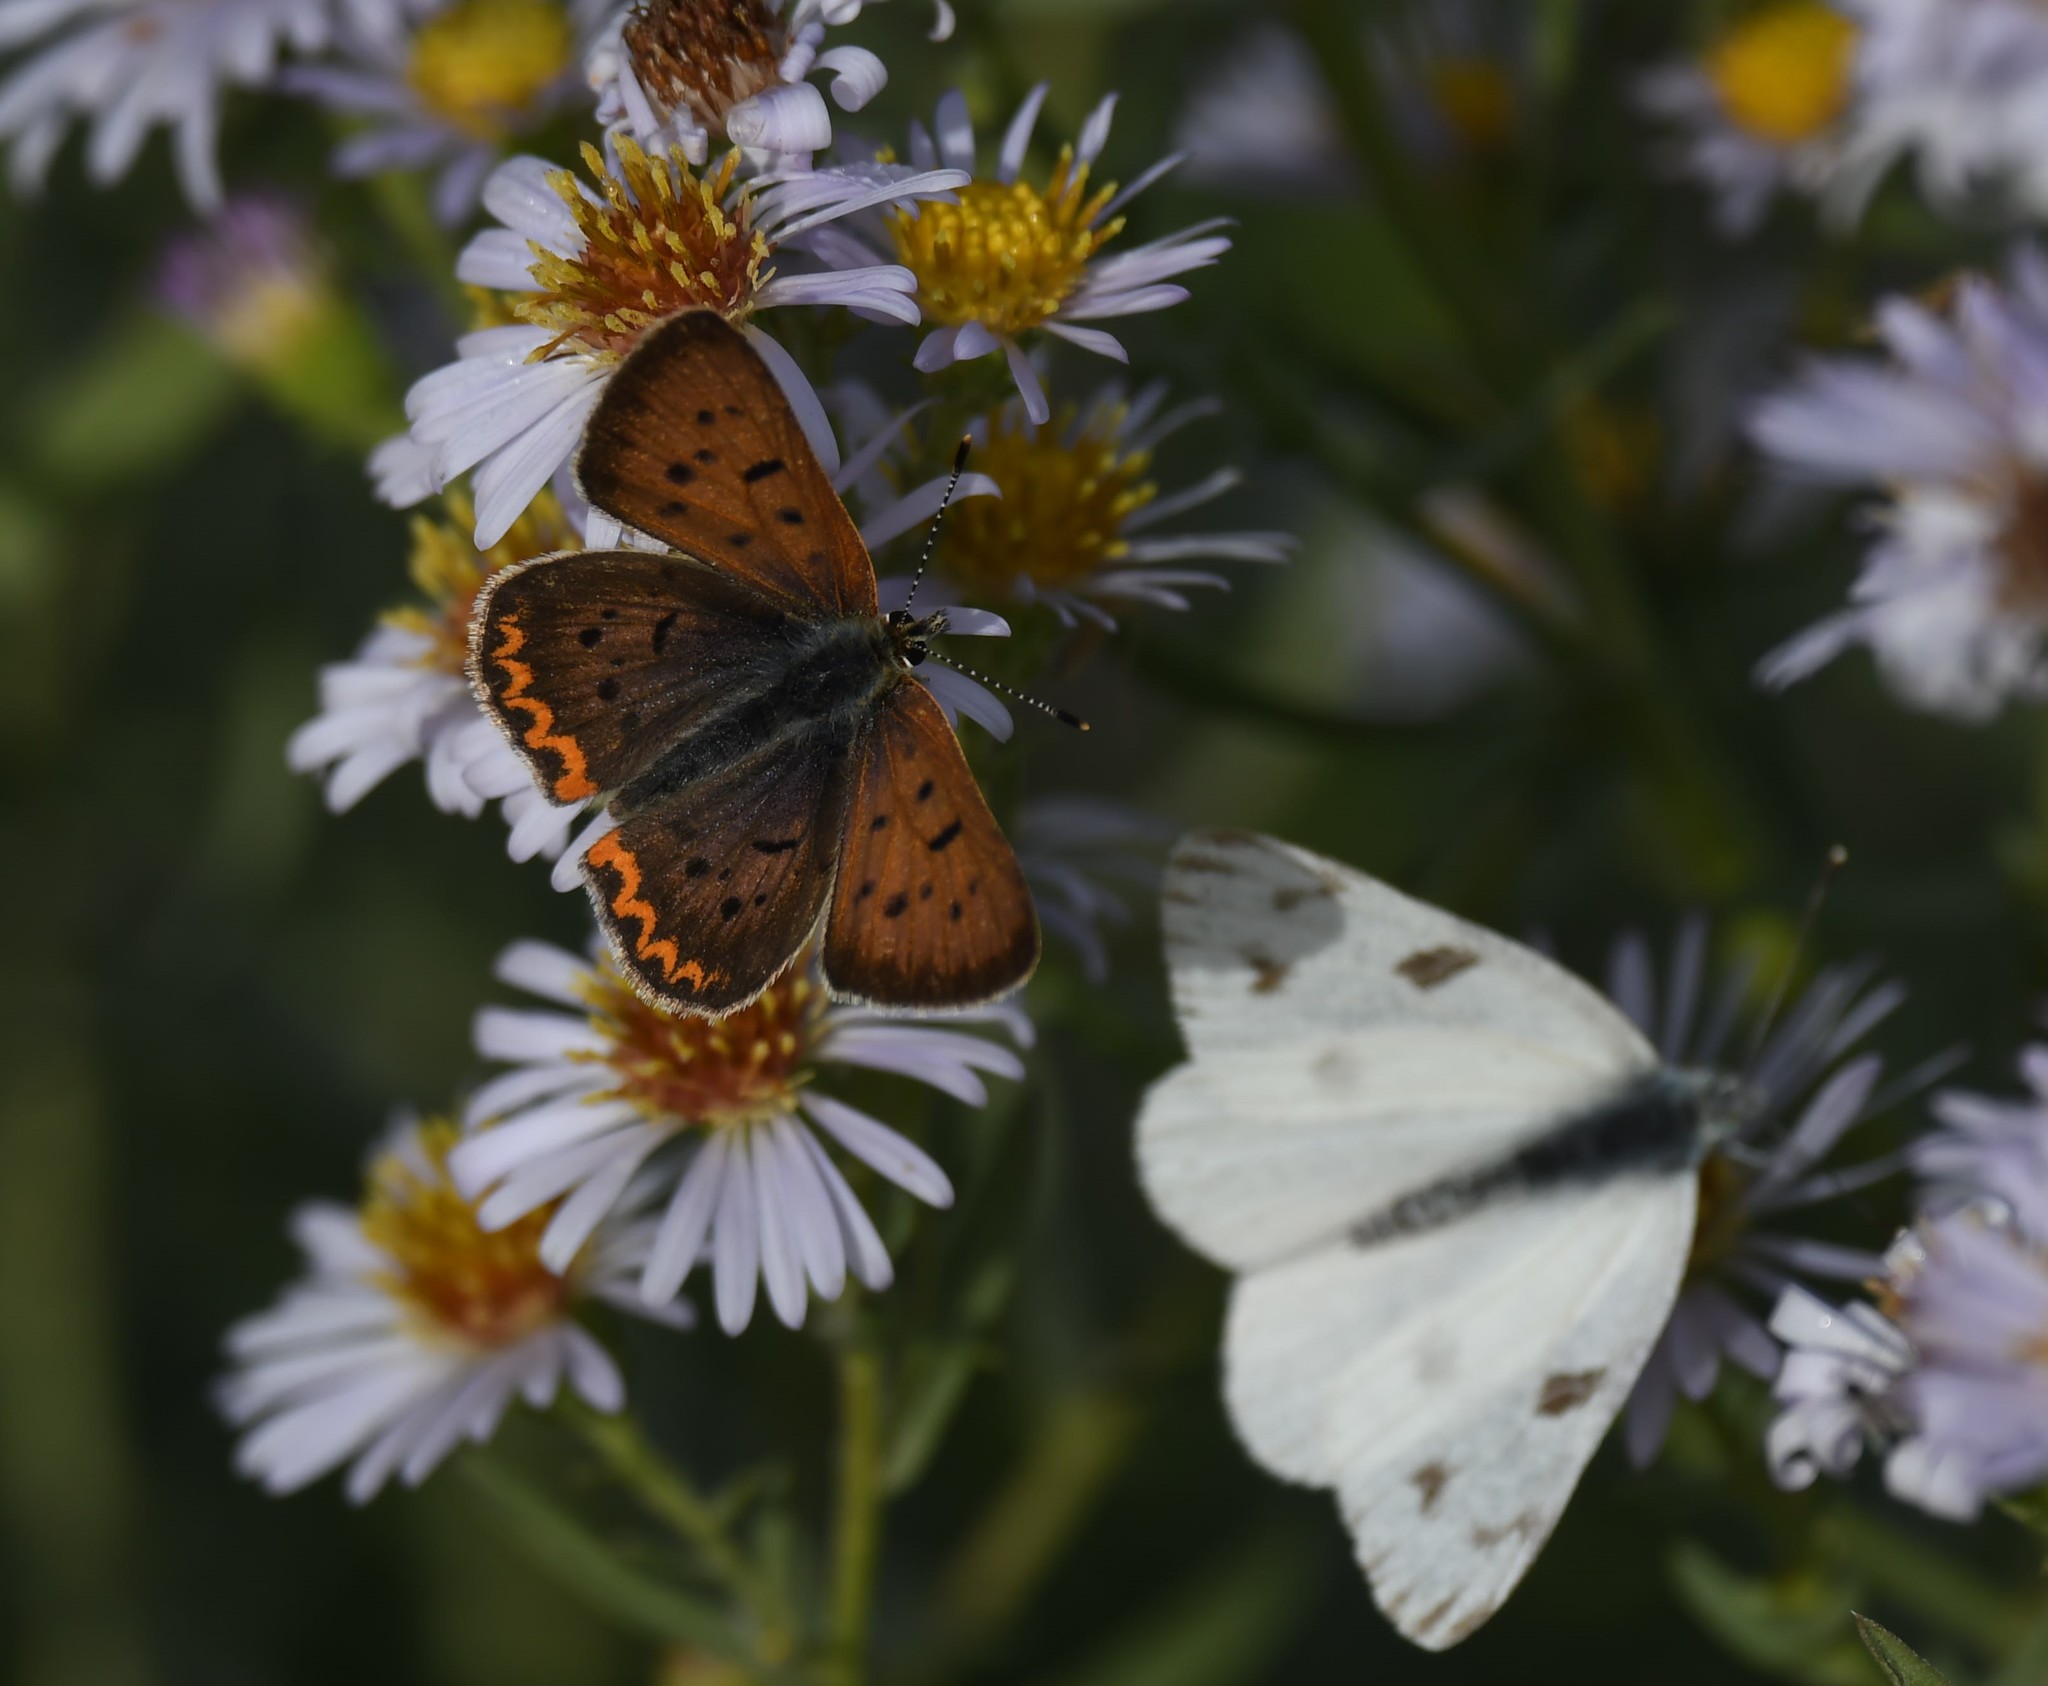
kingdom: Animalia
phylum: Arthropoda
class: Insecta
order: Lepidoptera
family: Lycaenidae
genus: Tharsalea
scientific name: Tharsalea helloides
